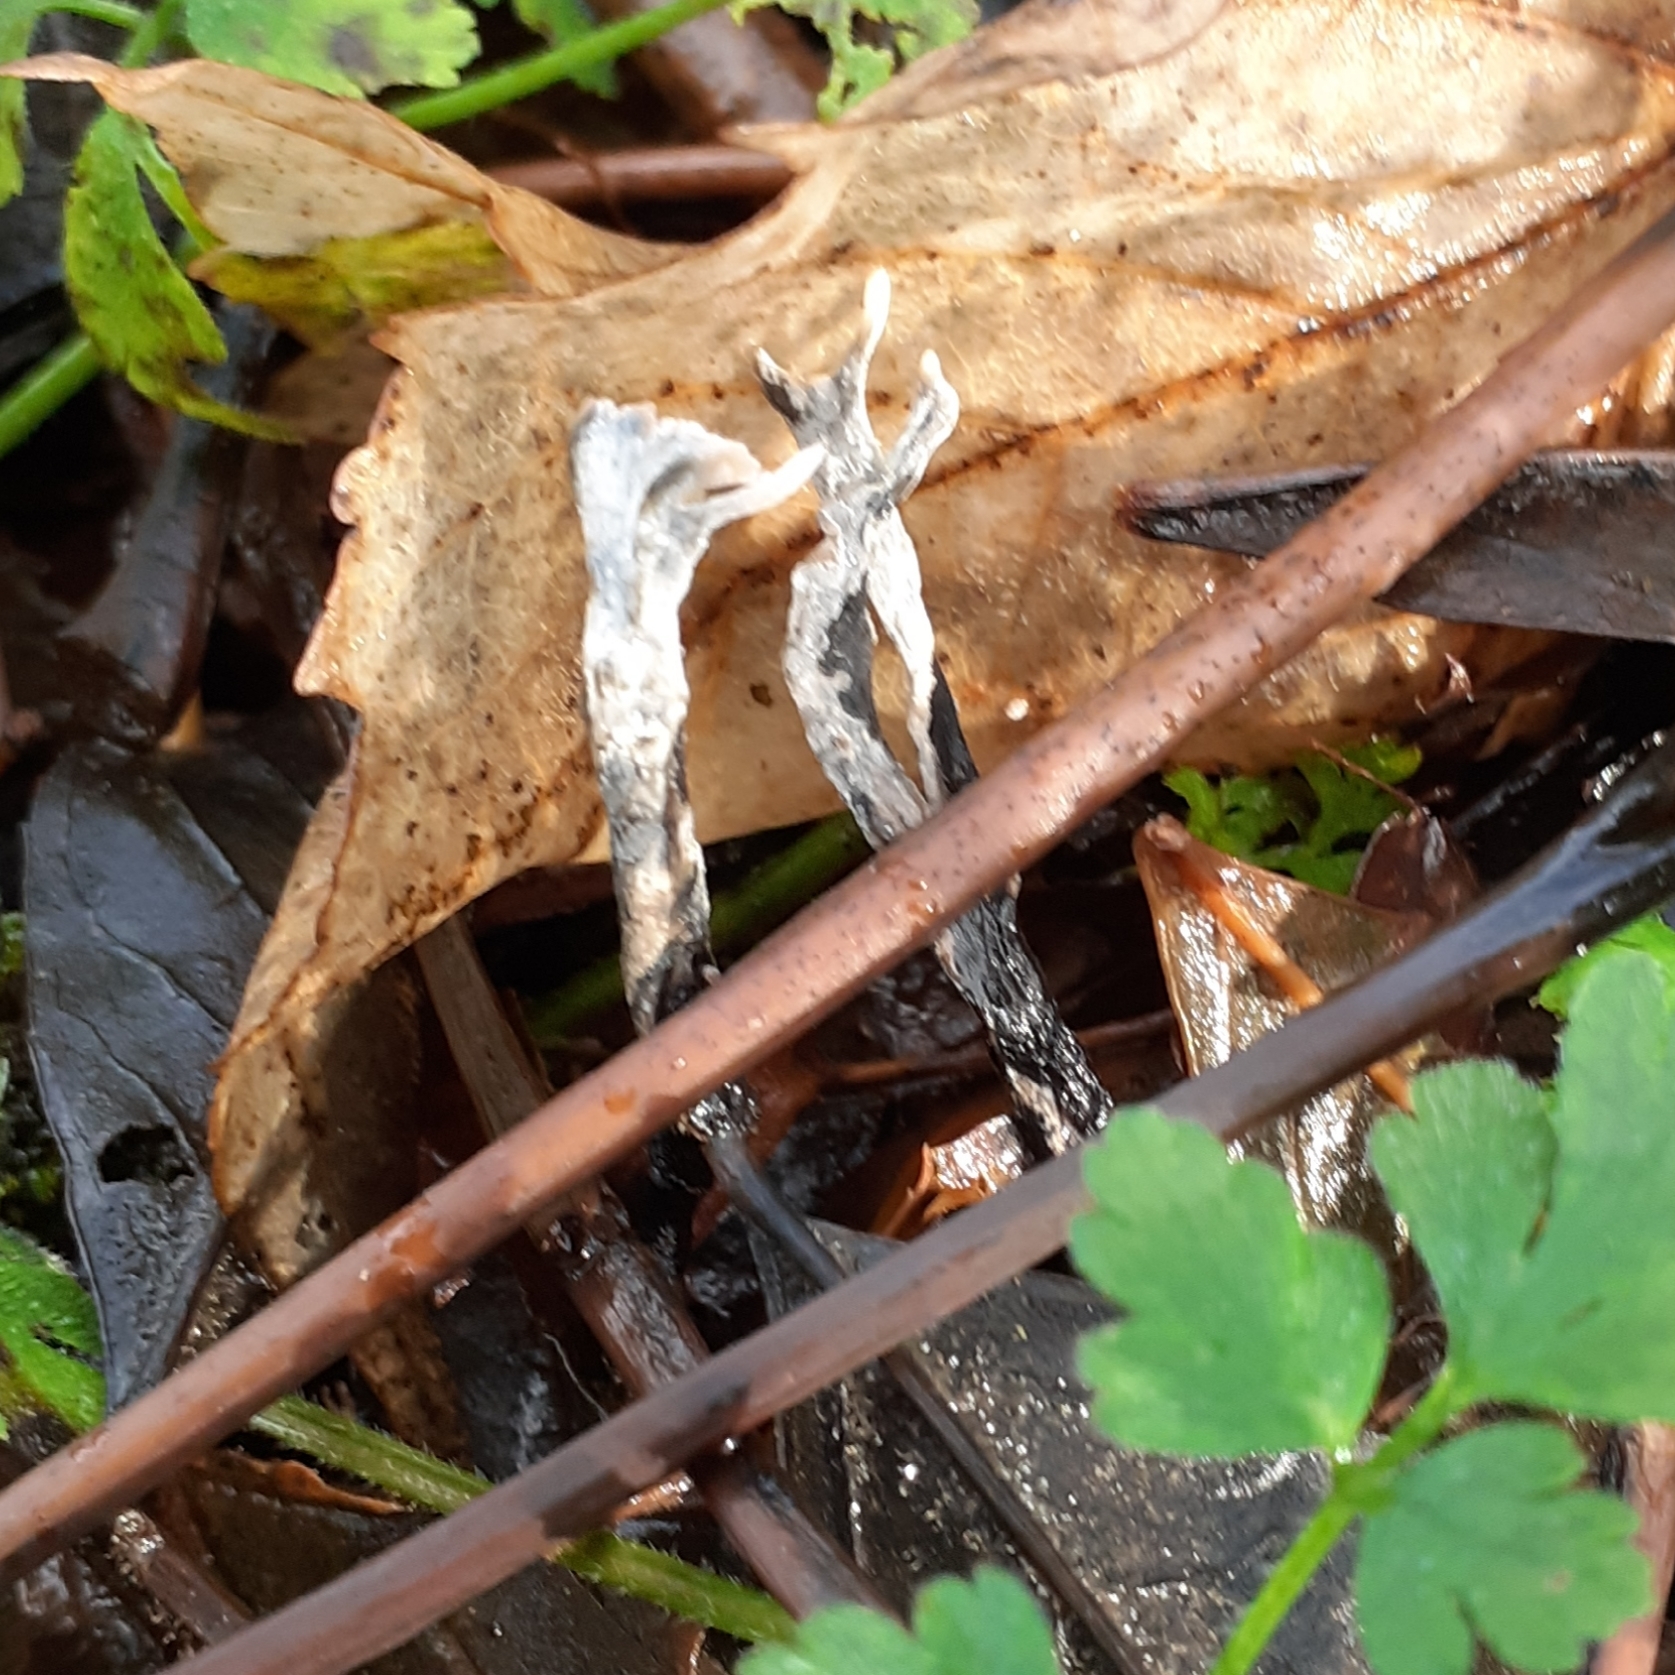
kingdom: Fungi
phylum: Ascomycota
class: Sordariomycetes
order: Xylariales
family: Xylariaceae
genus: Xylaria
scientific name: Xylaria hypoxylon
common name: Candle-snuff fungus
